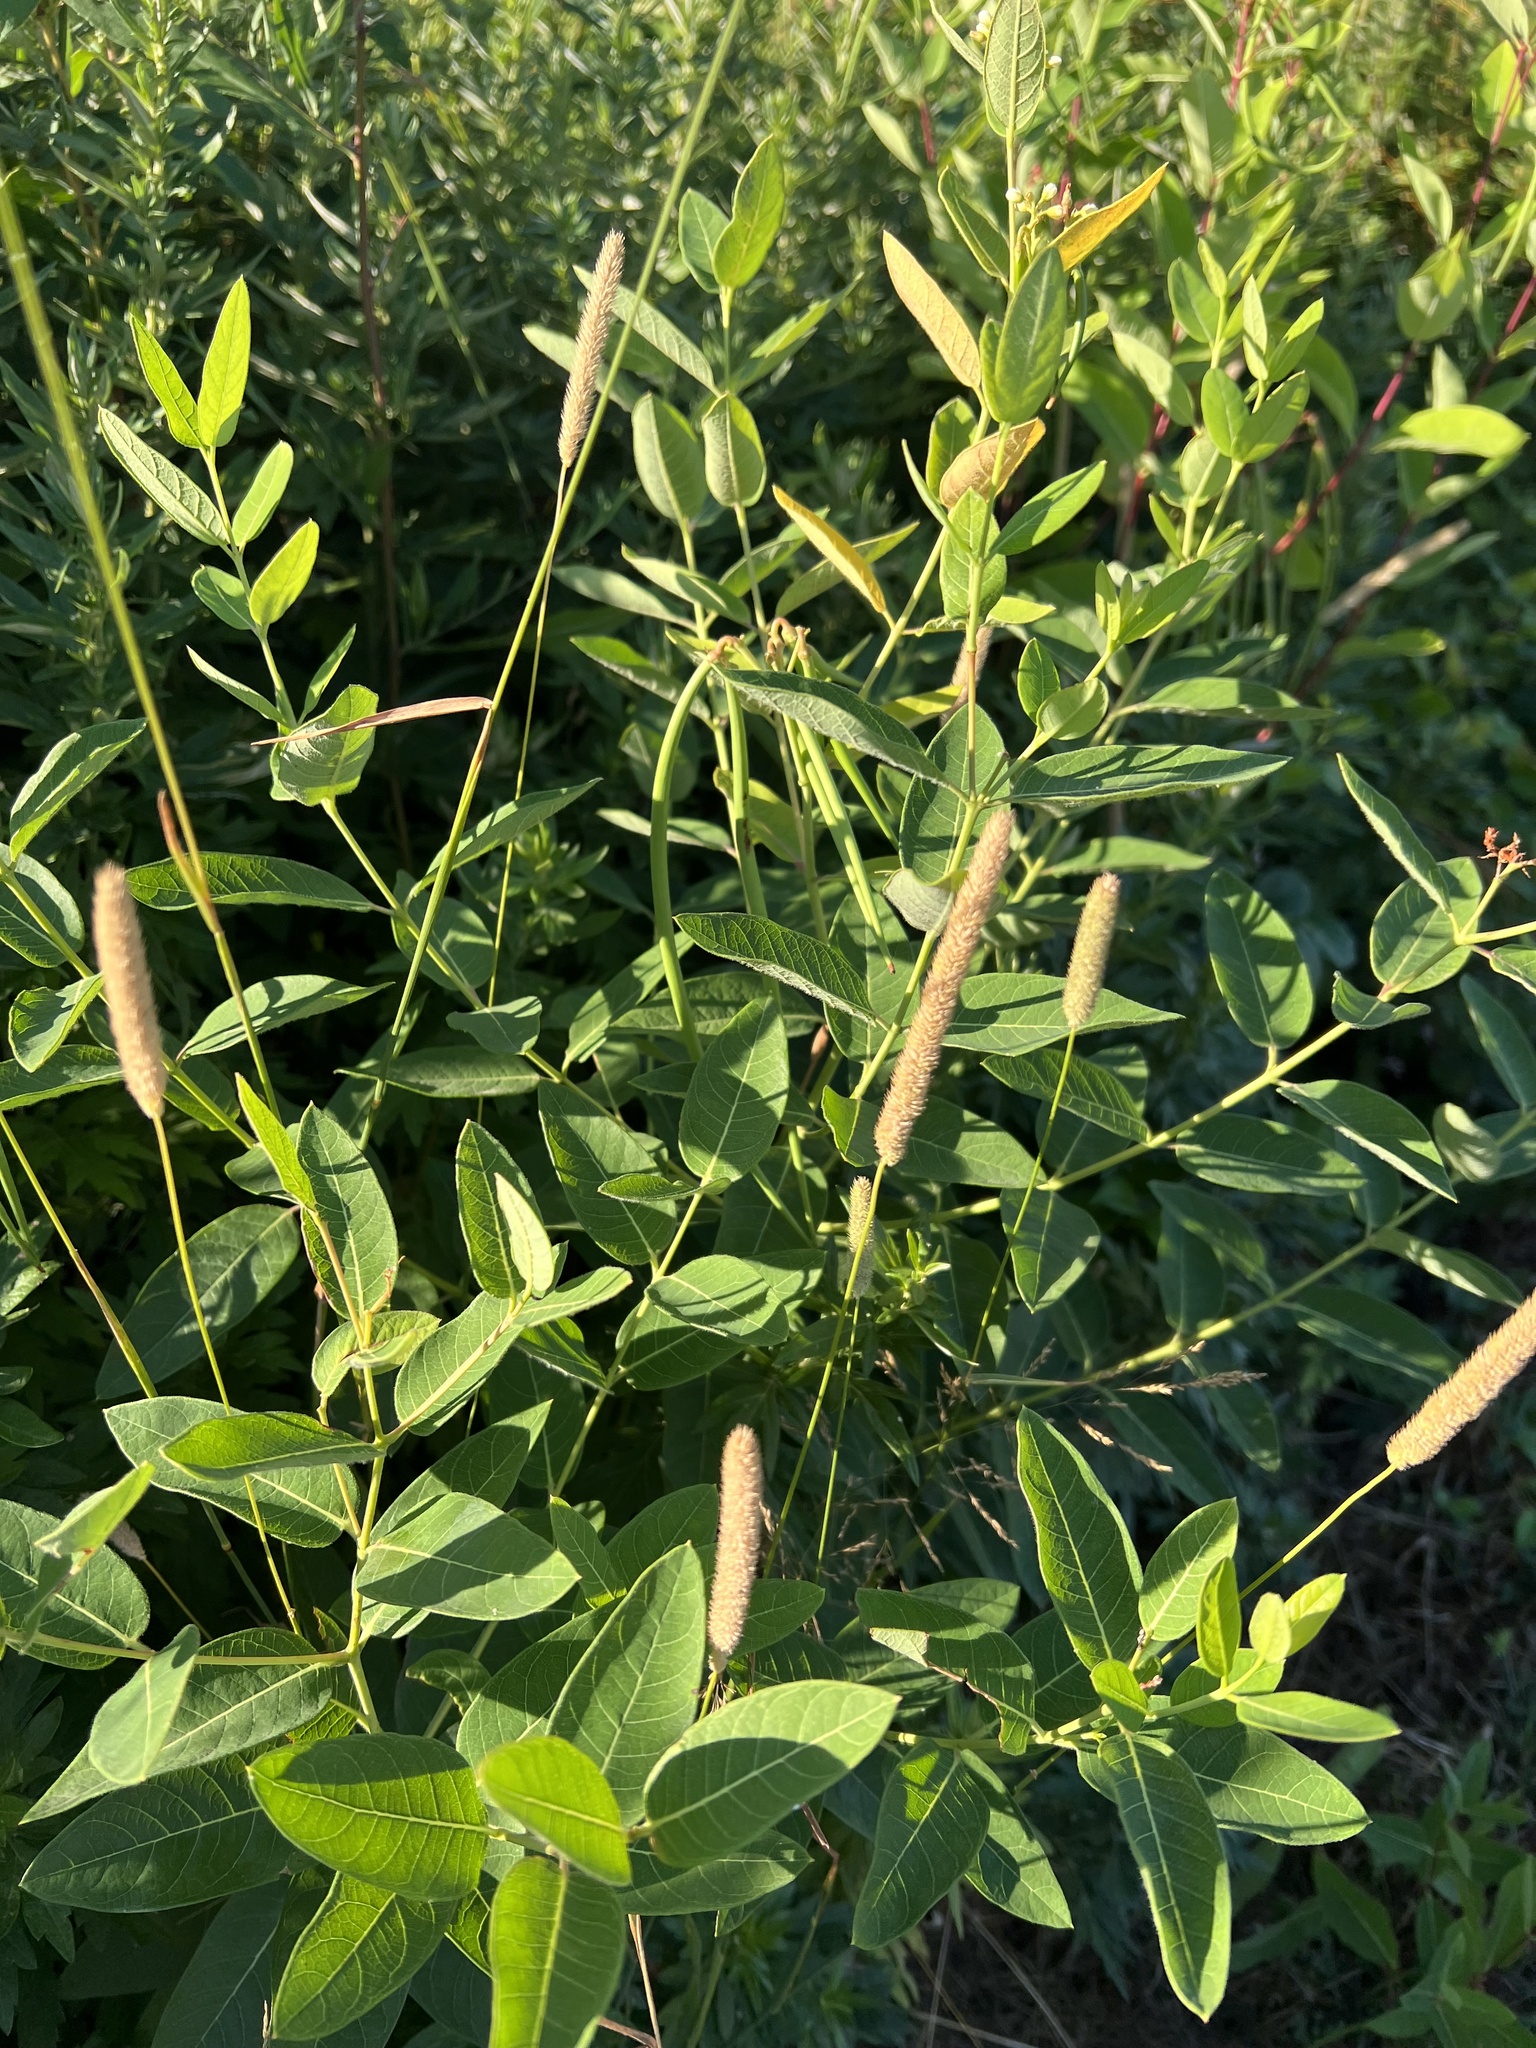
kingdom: Plantae
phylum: Tracheophyta
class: Liliopsida
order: Poales
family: Poaceae
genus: Phleum
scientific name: Phleum pratense
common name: Timothy grass
